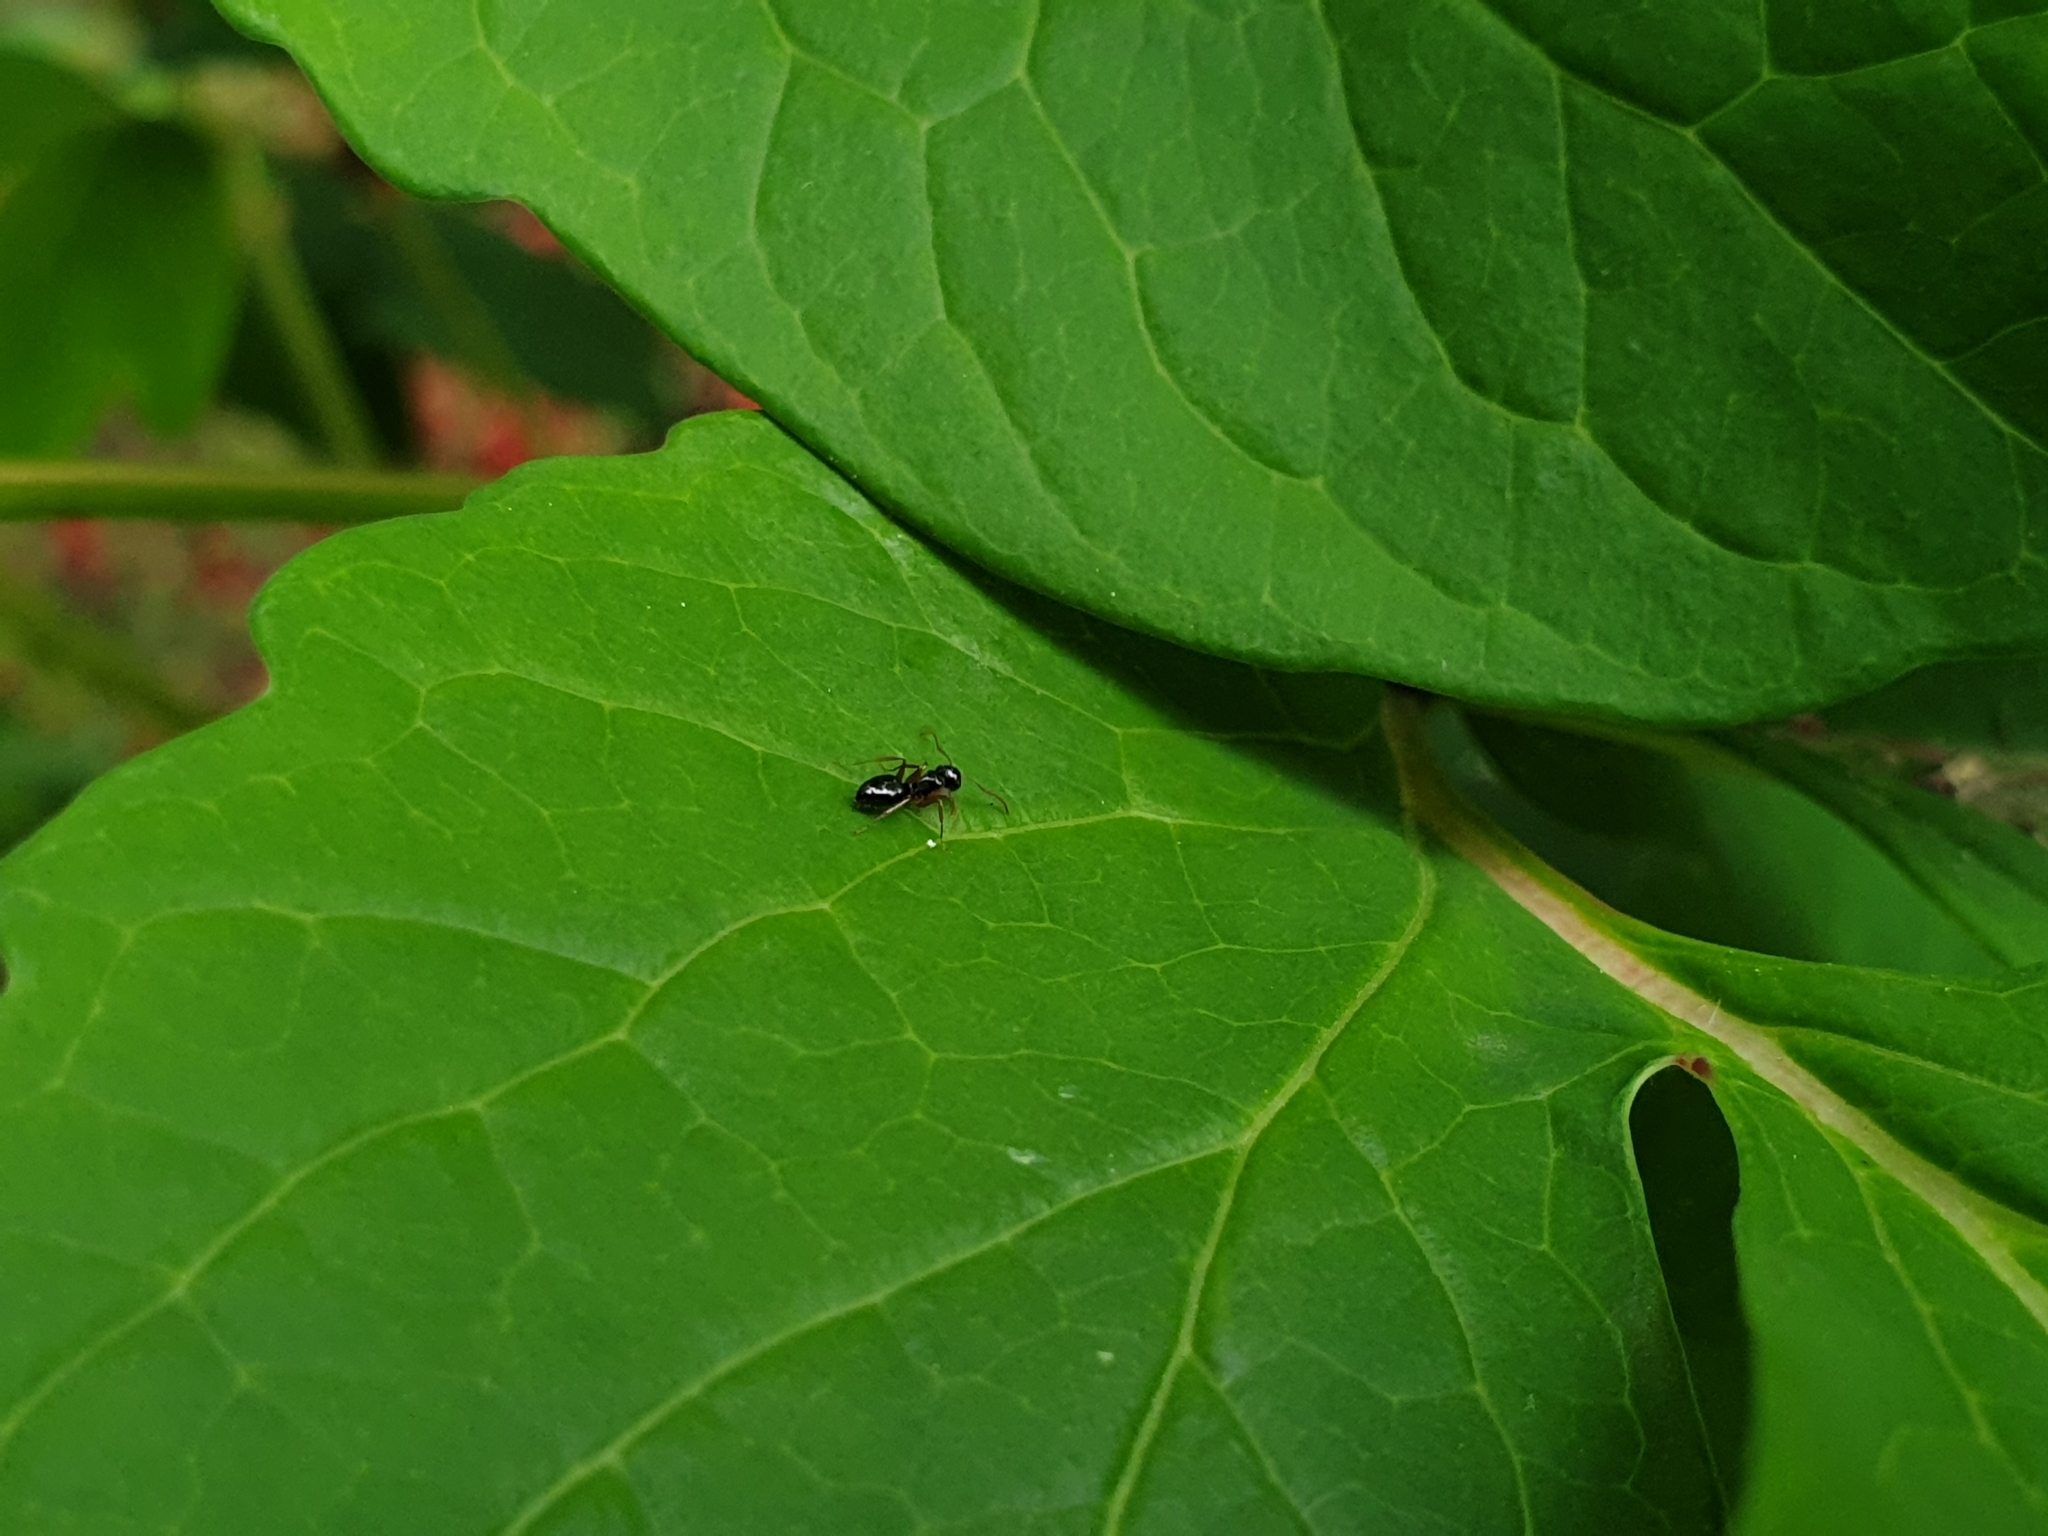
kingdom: Animalia
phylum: Arthropoda
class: Insecta
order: Hymenoptera
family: Formicidae
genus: Camponotus
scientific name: Camponotus itoi
